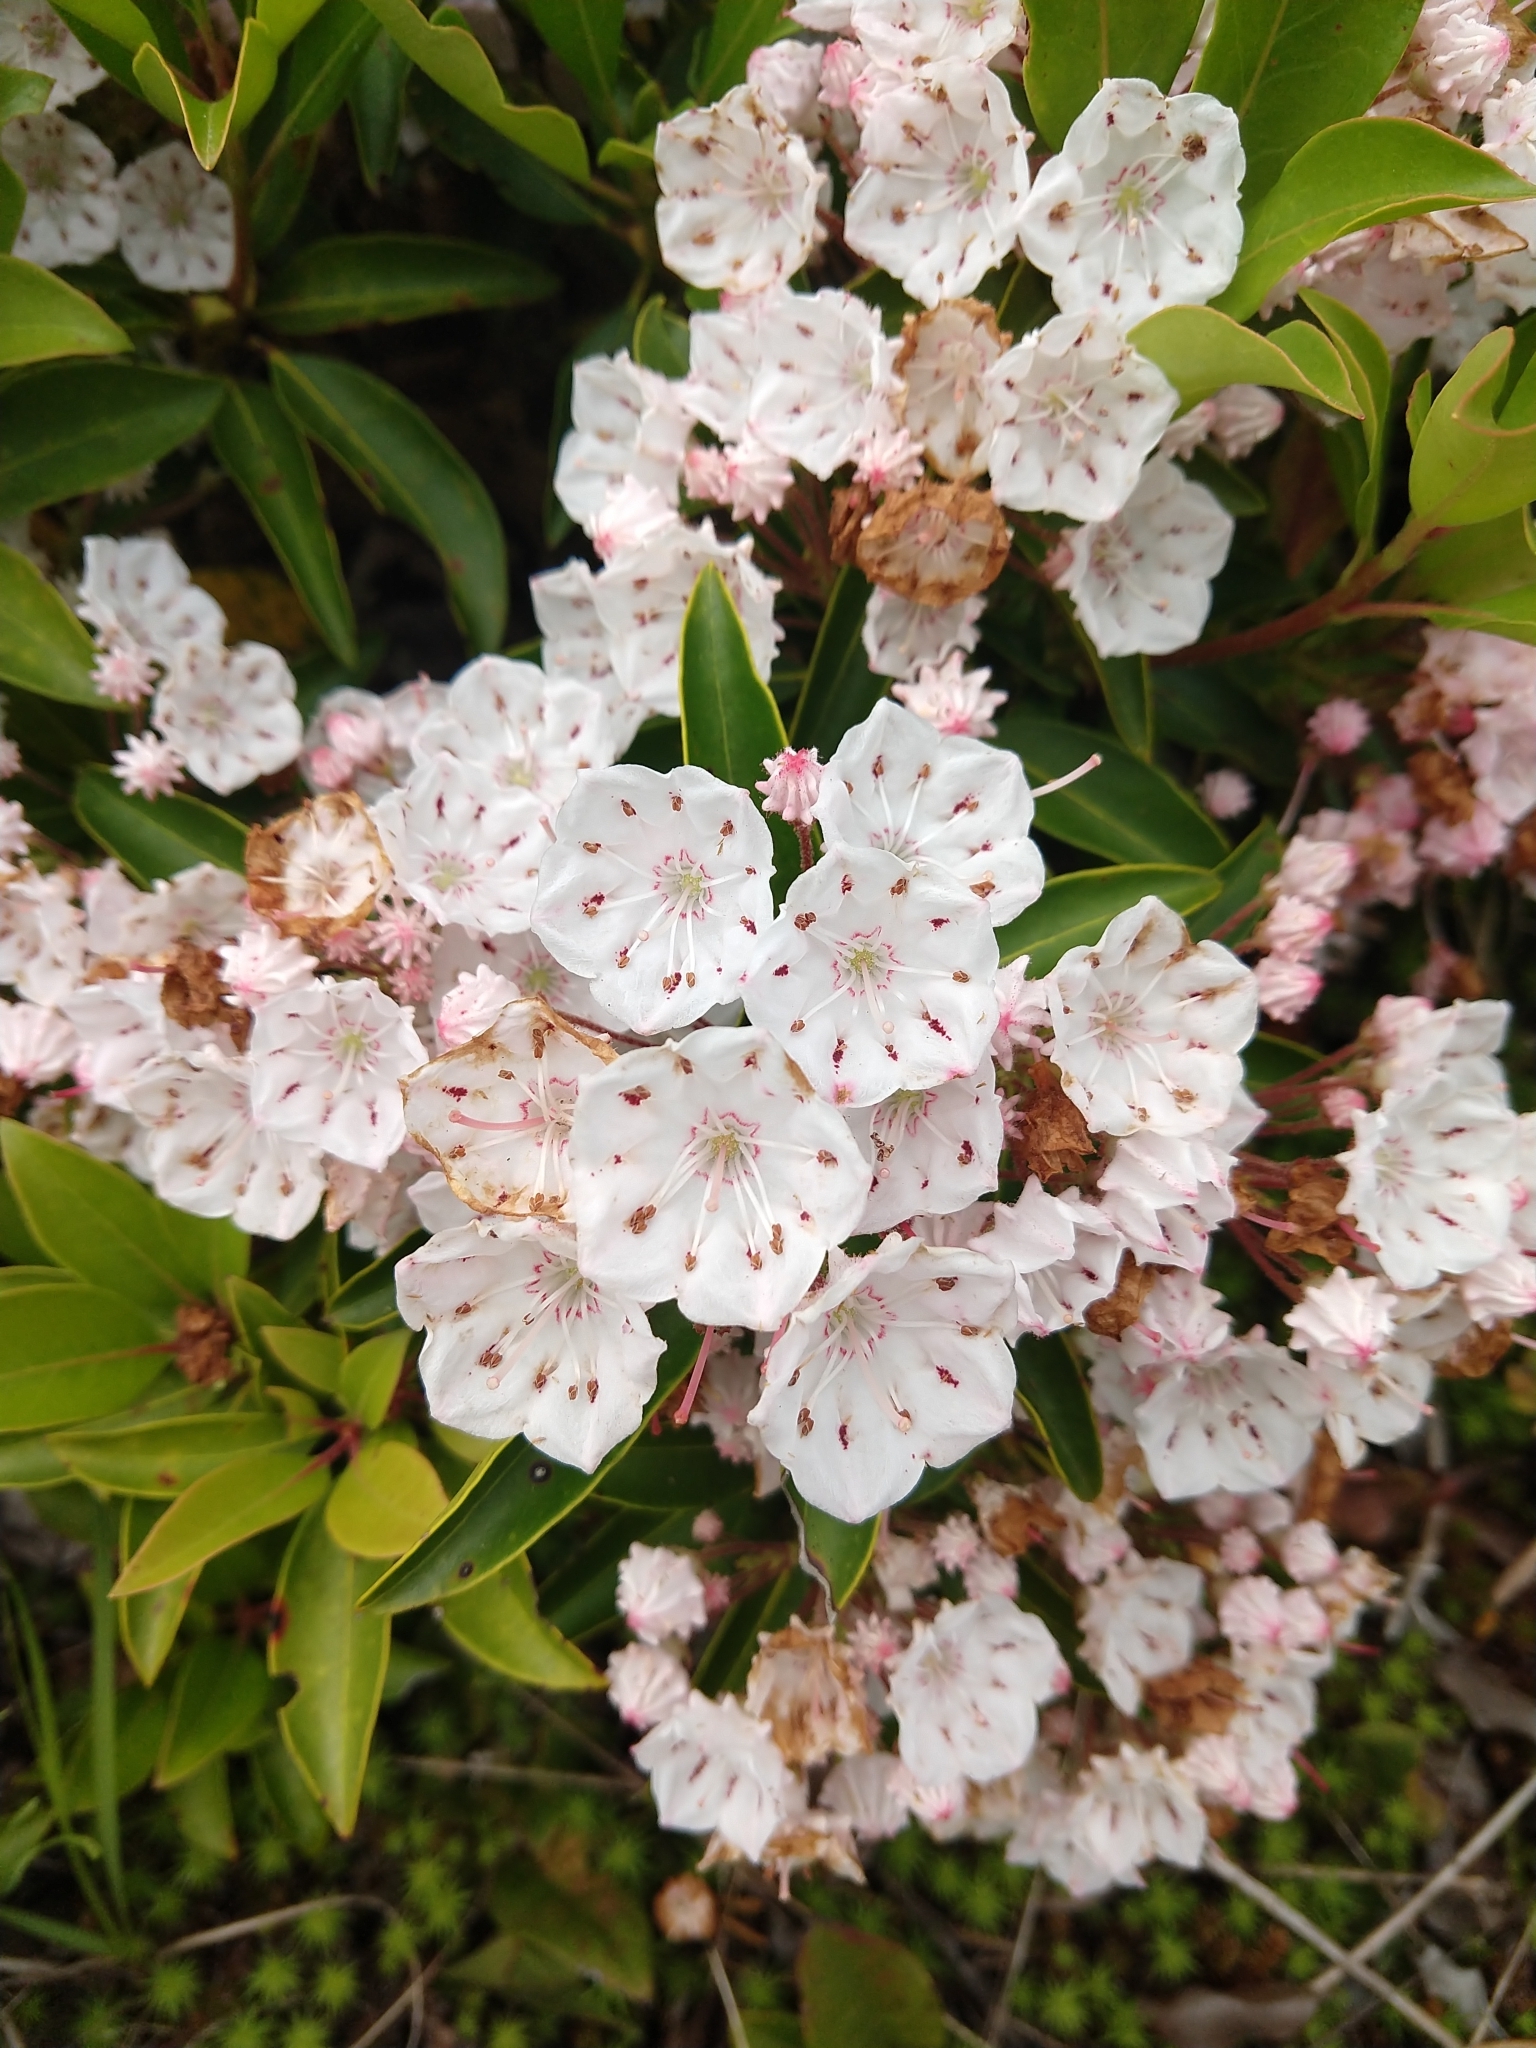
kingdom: Plantae
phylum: Tracheophyta
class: Magnoliopsida
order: Ericales
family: Ericaceae
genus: Kalmia
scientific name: Kalmia latifolia
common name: Mountain-laurel
